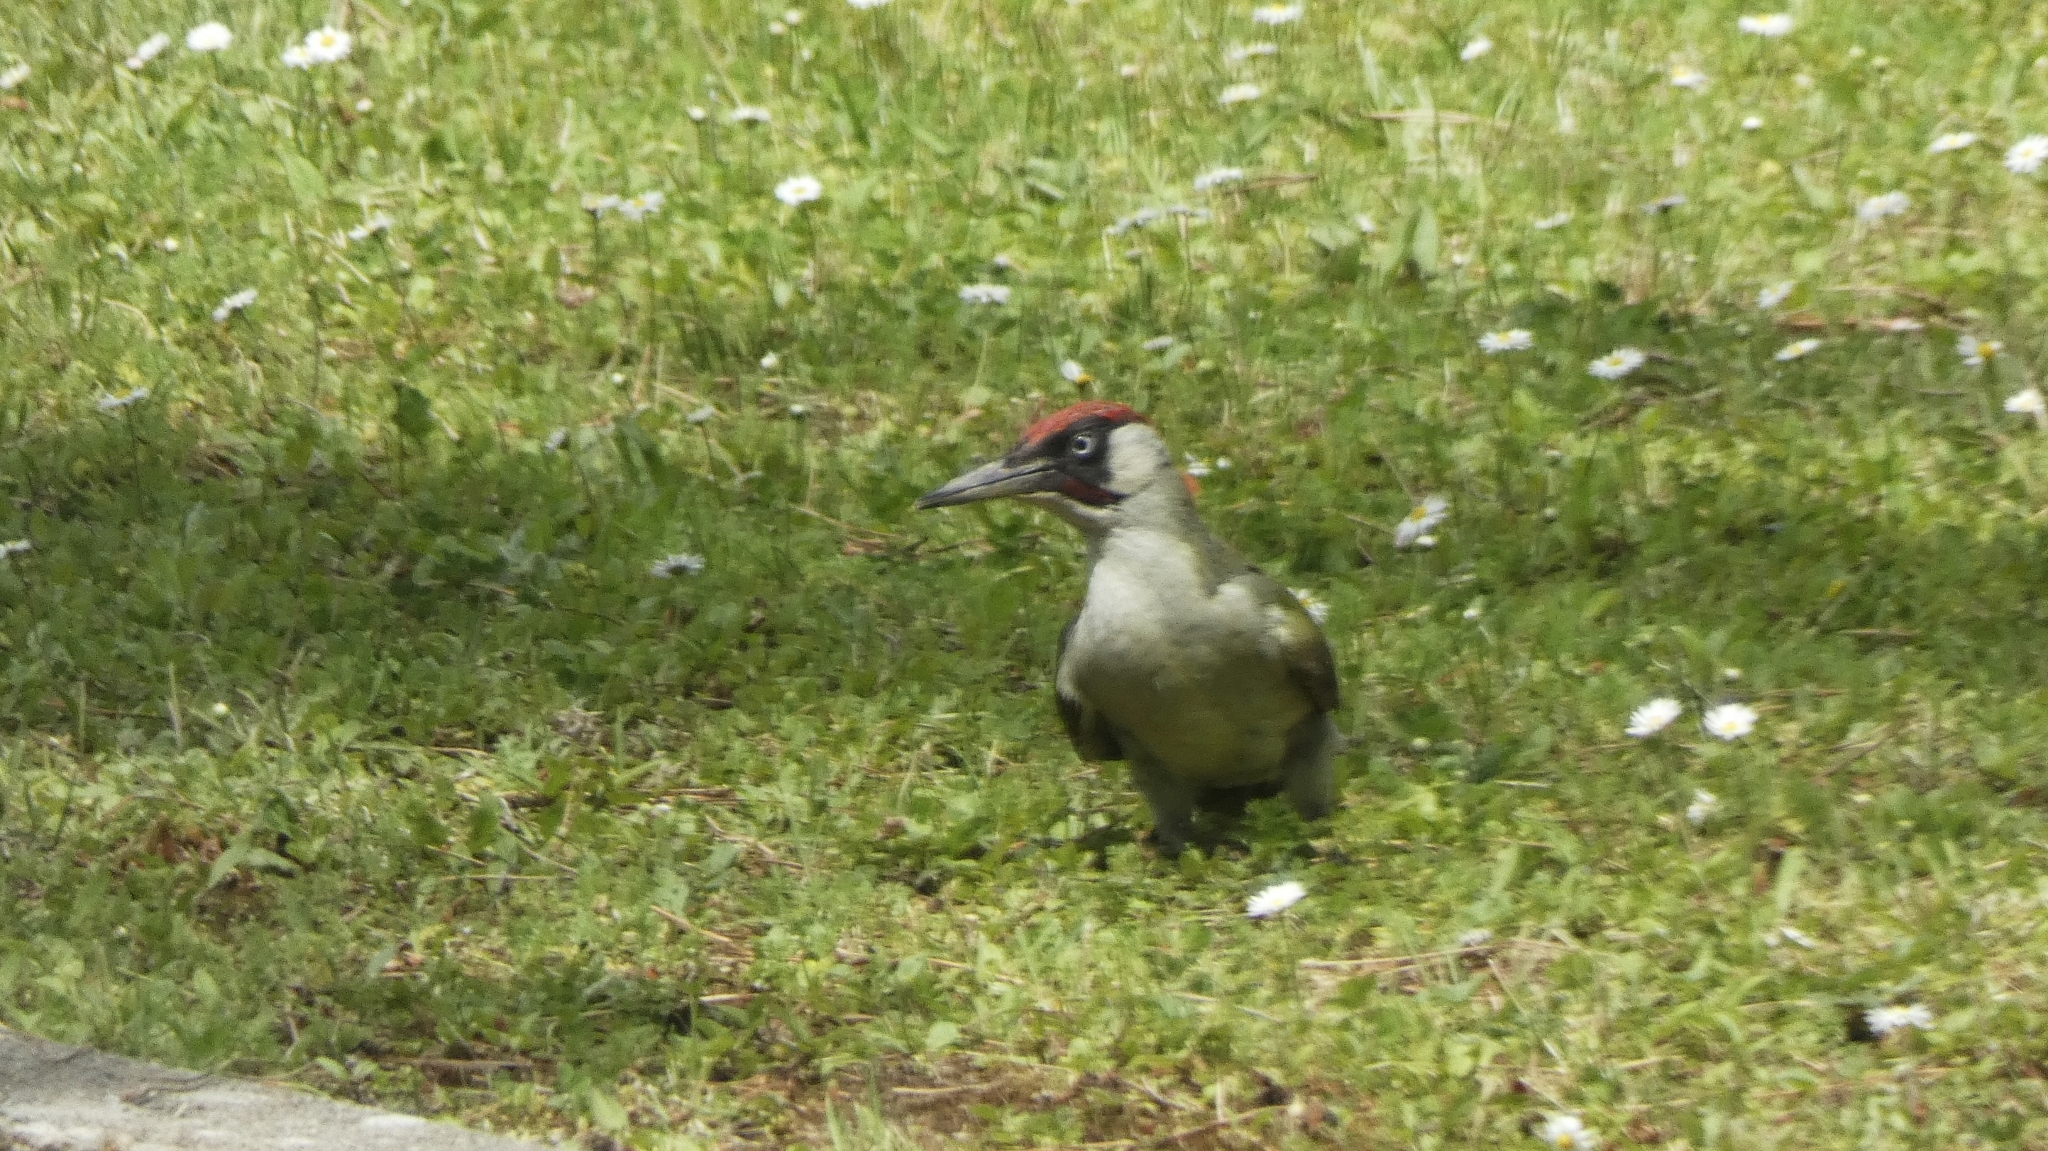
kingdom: Animalia
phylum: Chordata
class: Aves
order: Piciformes
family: Picidae
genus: Picus
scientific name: Picus viridis
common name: European green woodpecker
